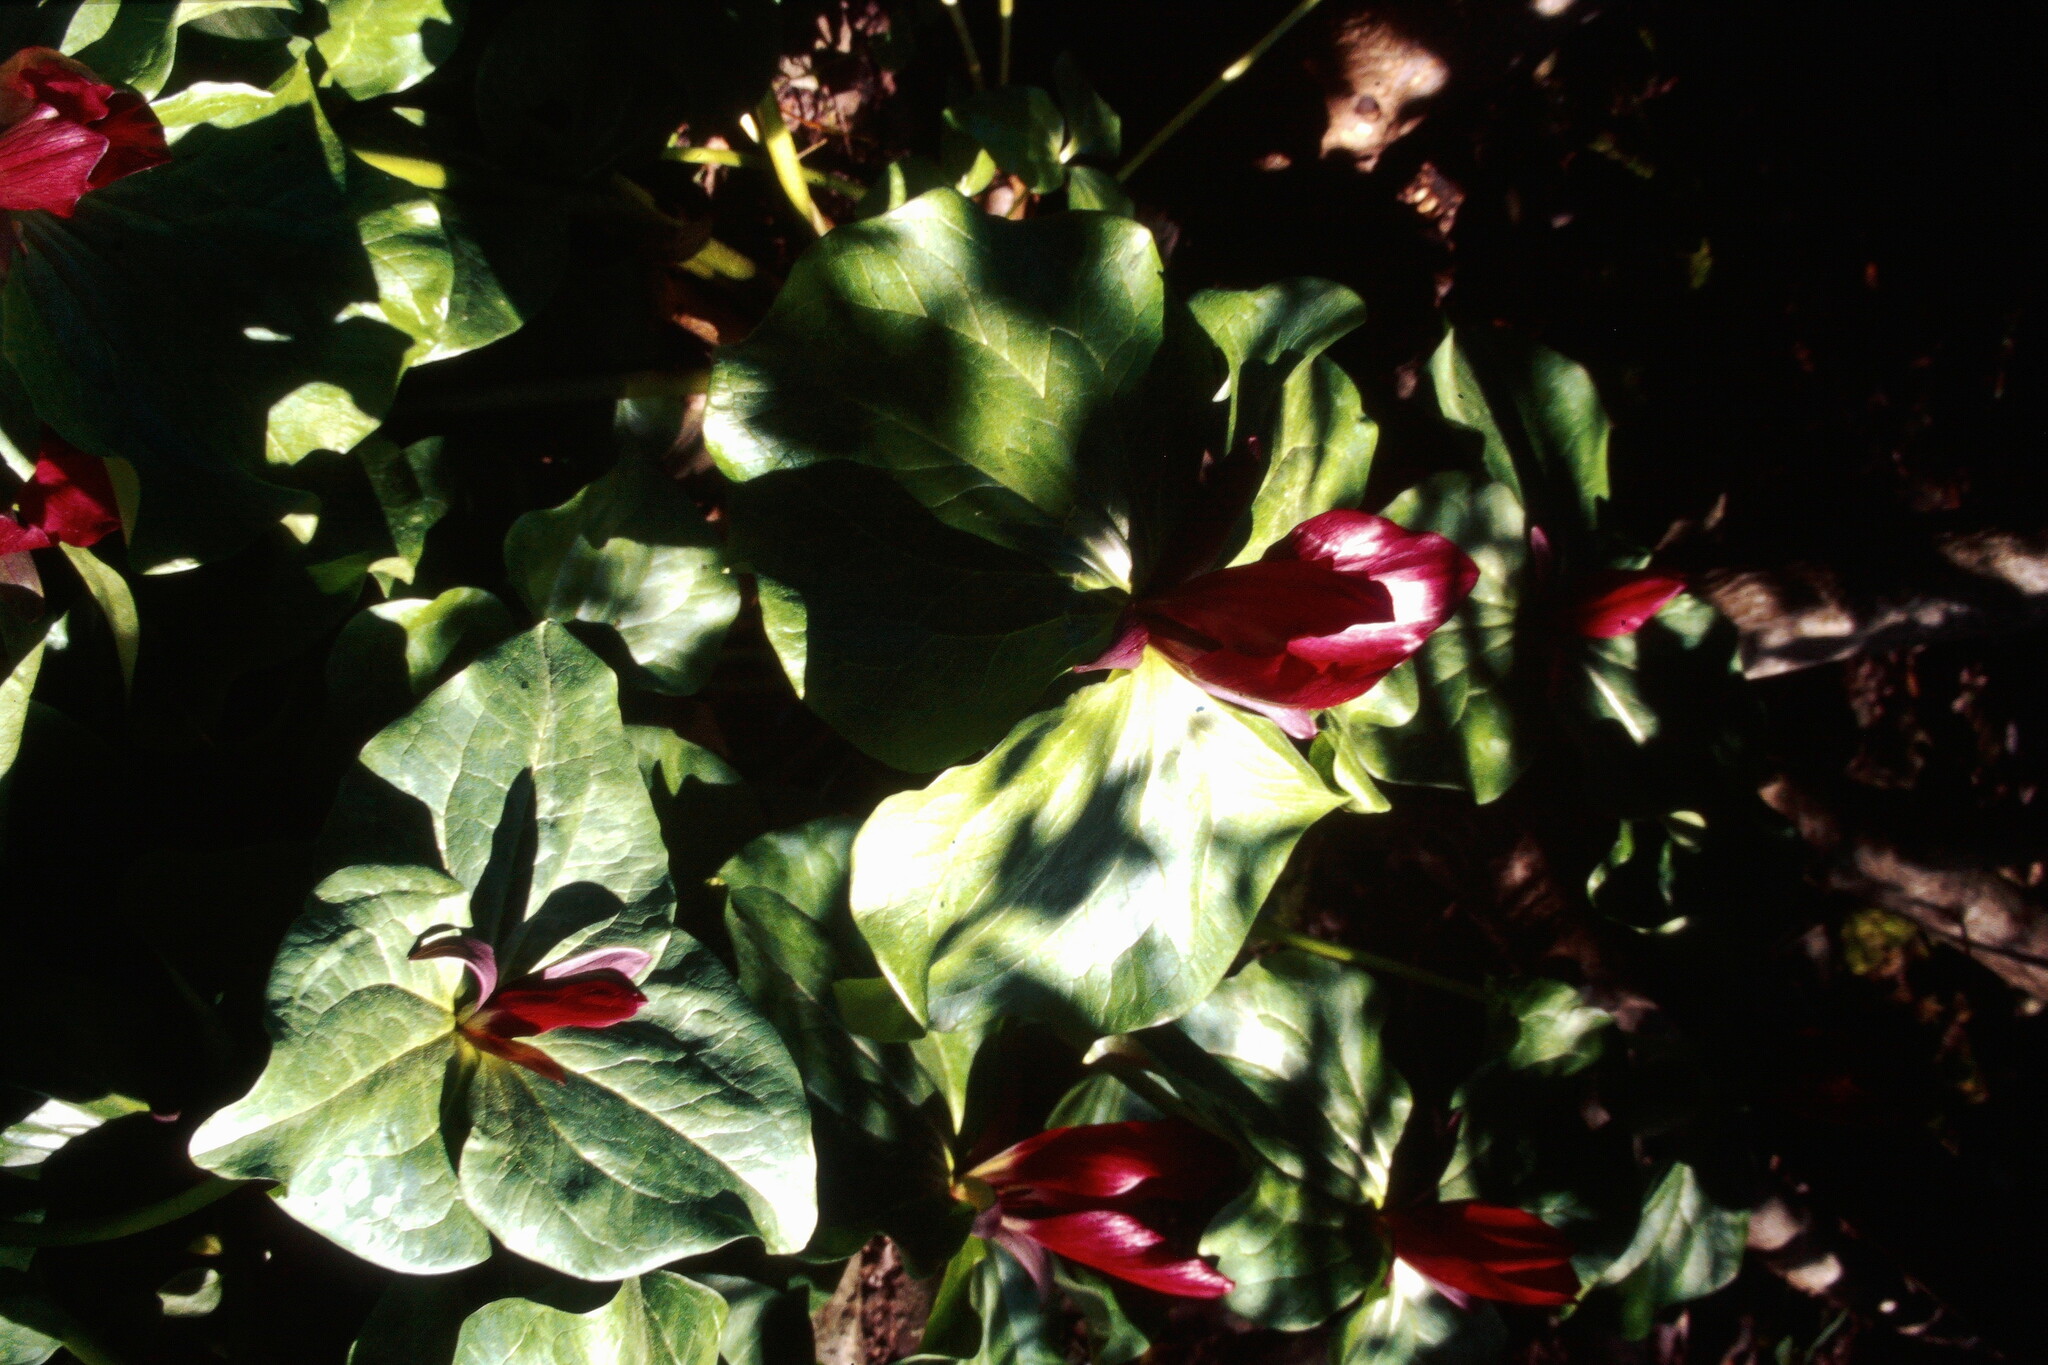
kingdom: Plantae
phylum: Tracheophyta
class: Liliopsida
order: Liliales
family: Melanthiaceae
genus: Trillium
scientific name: Trillium chloropetalum
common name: Giant trillium
